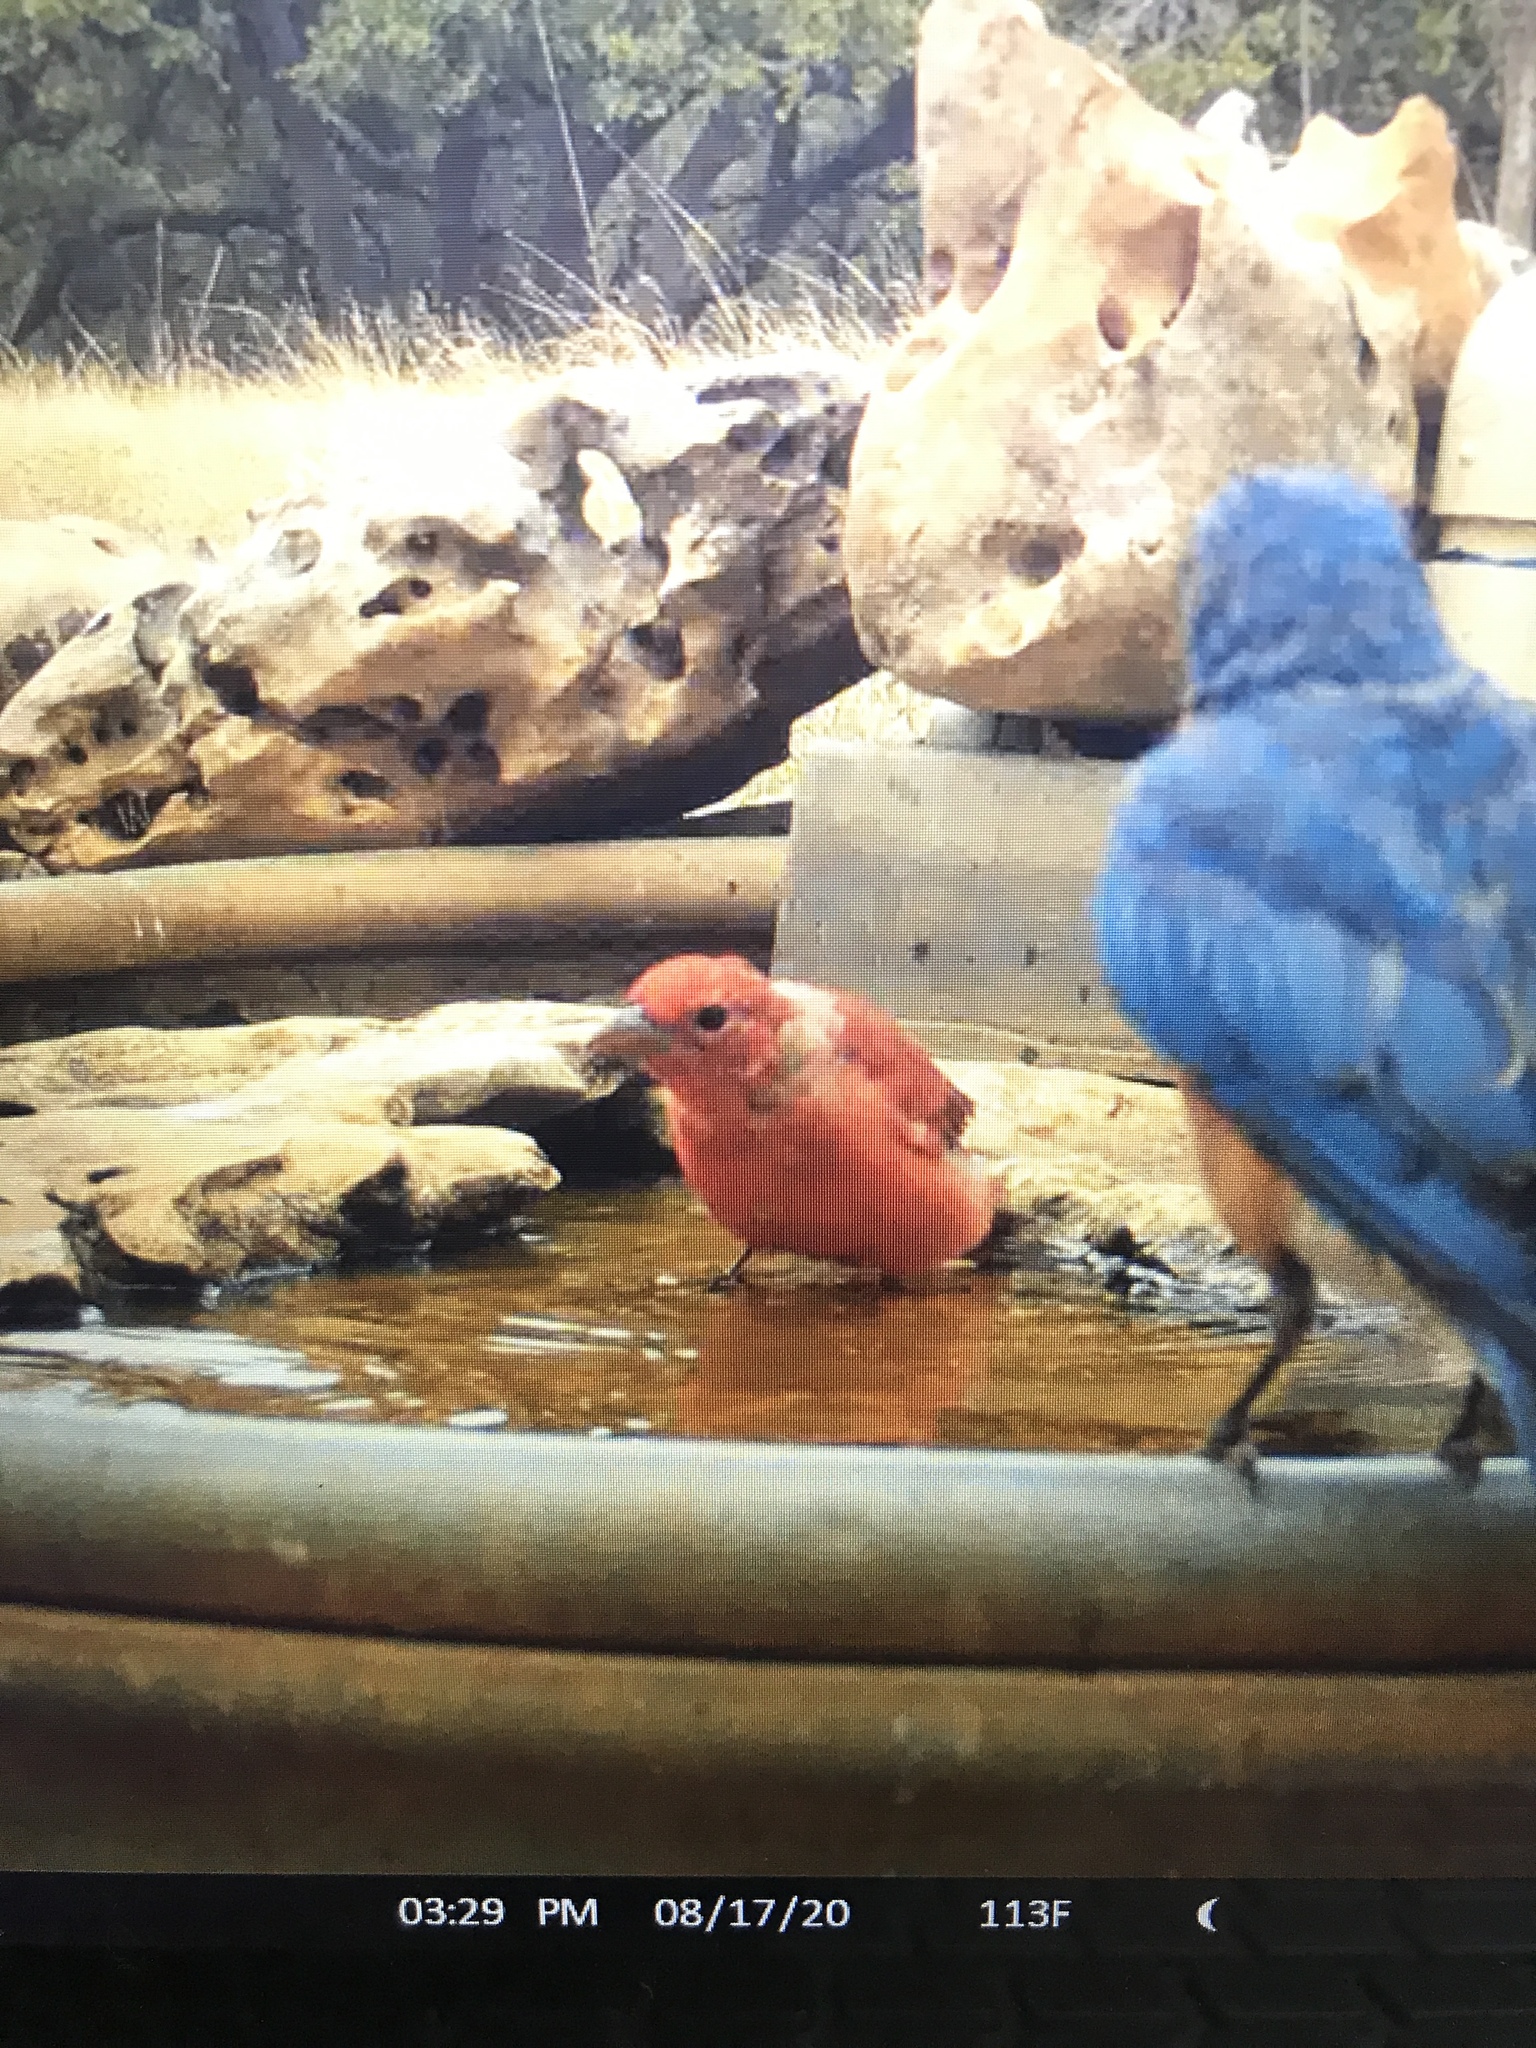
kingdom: Animalia
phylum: Chordata
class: Aves
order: Passeriformes
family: Cardinalidae
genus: Piranga
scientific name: Piranga rubra
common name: Summer tanager
